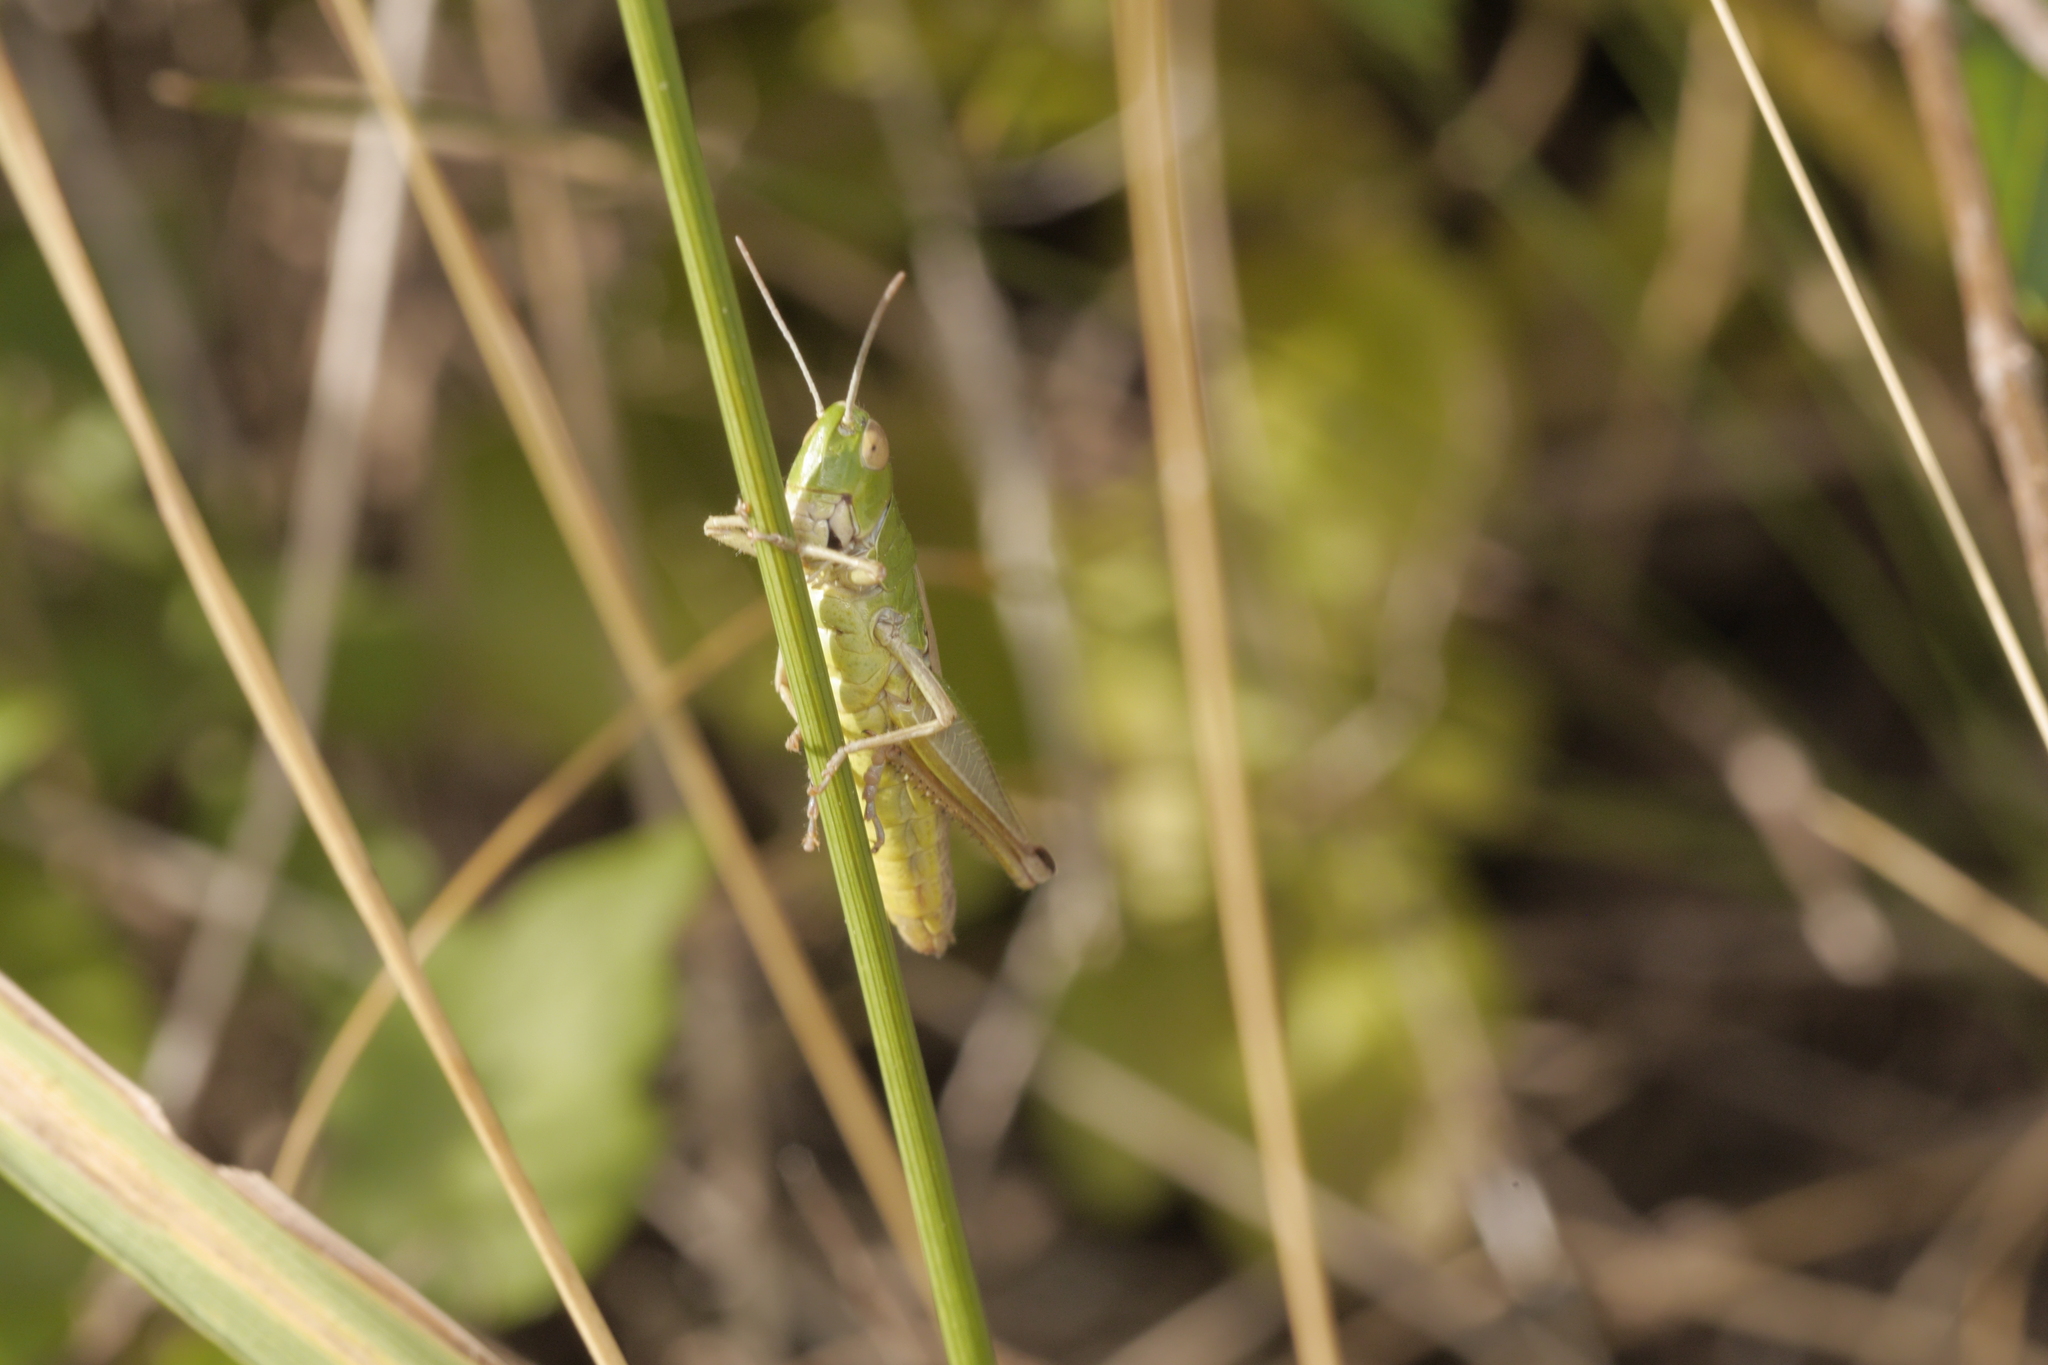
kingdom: Animalia
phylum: Arthropoda
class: Insecta
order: Orthoptera
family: Acrididae
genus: Pseudochorthippus
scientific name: Pseudochorthippus parallelus
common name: Meadow grasshopper
